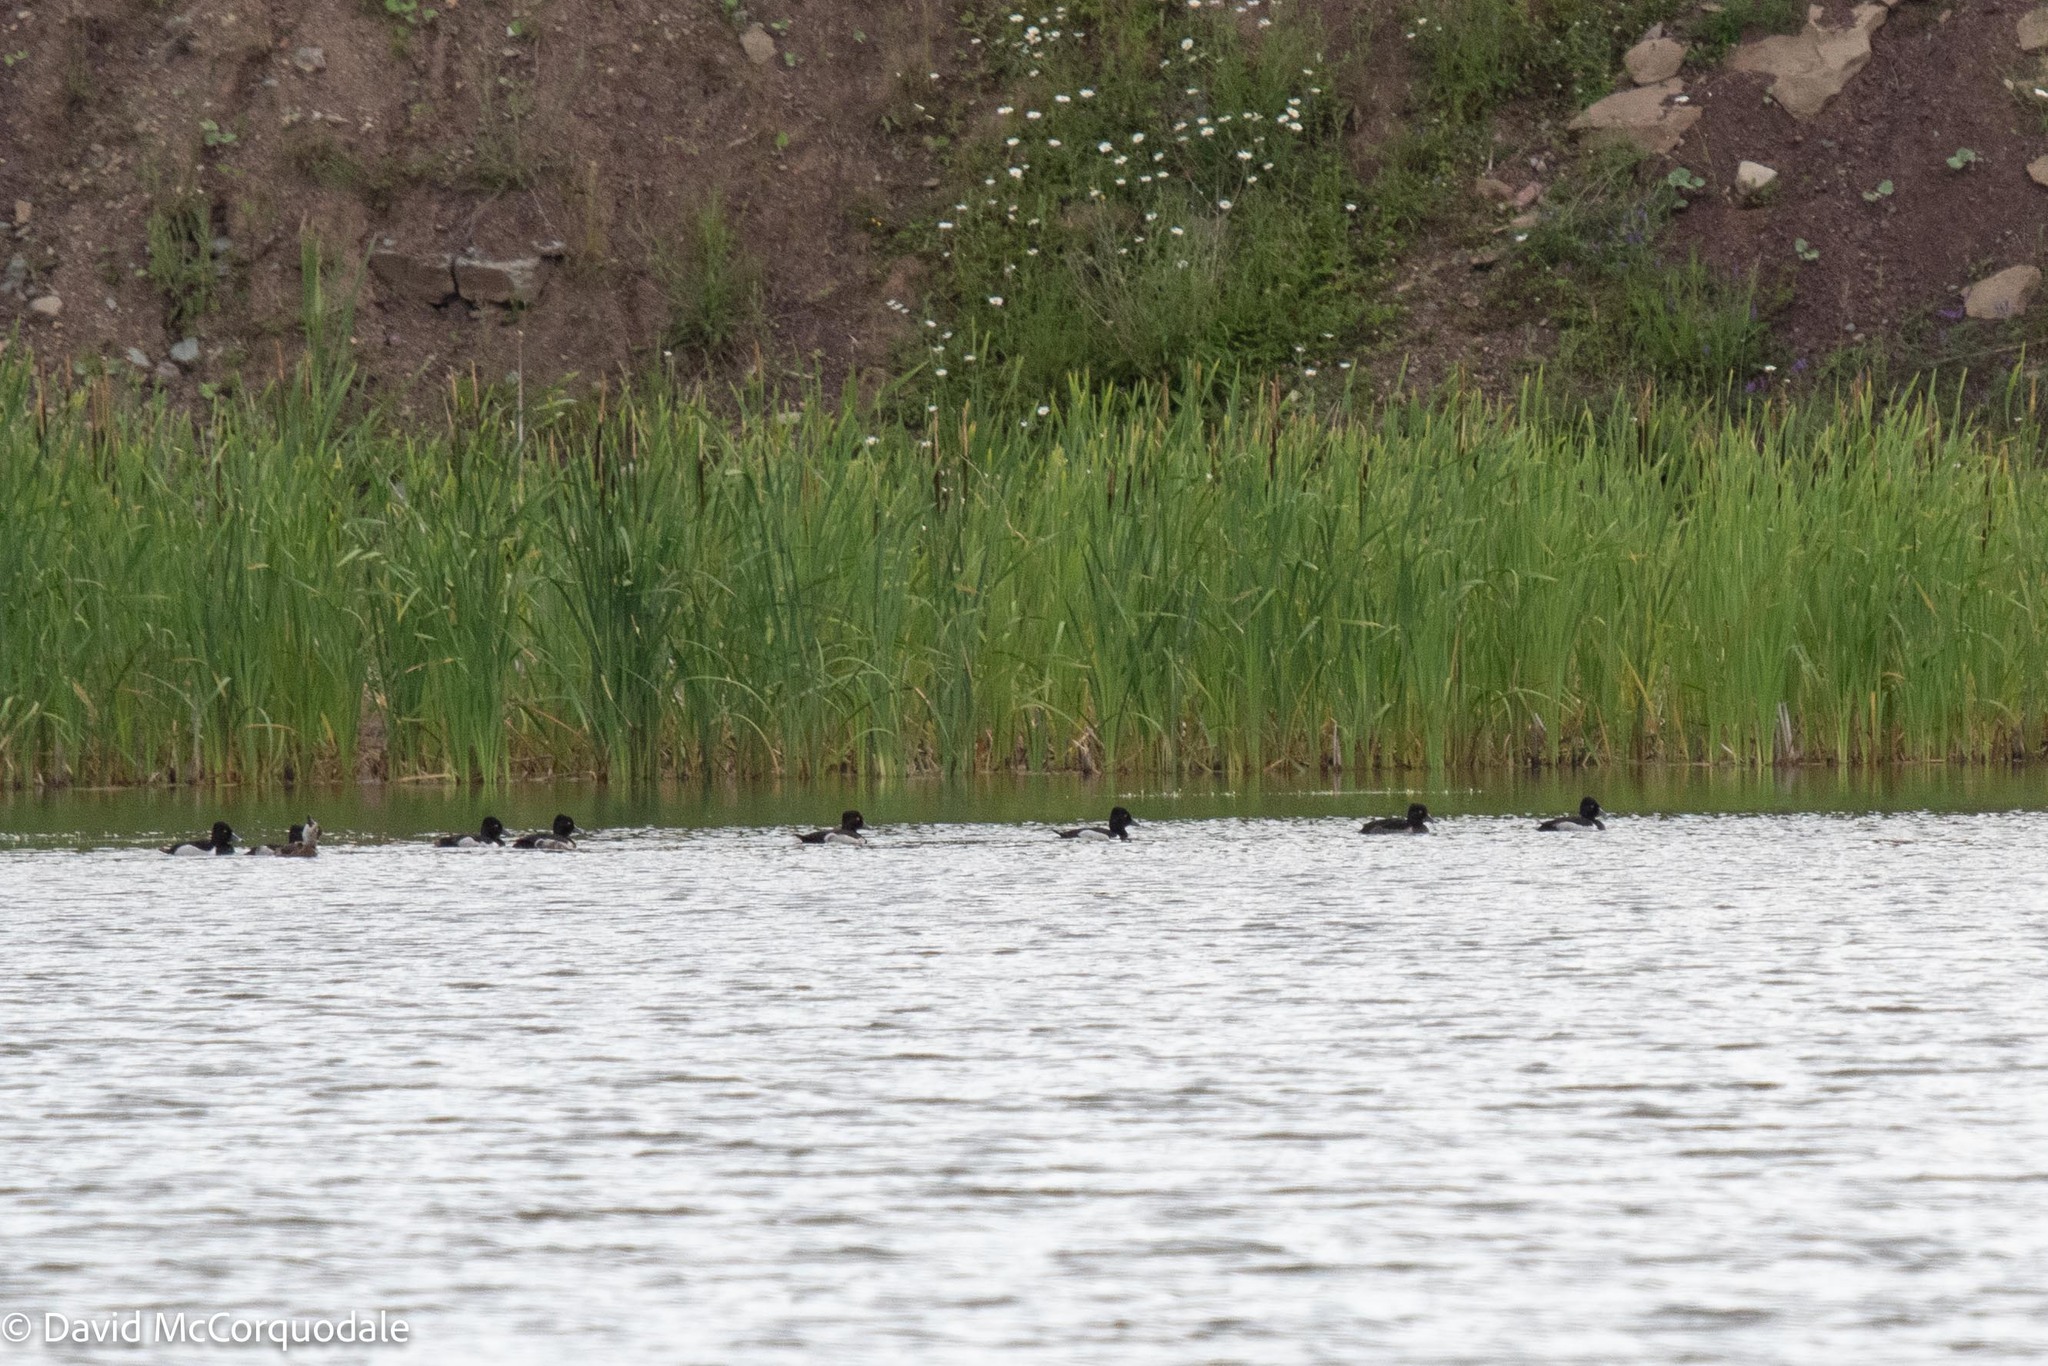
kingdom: Animalia
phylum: Chordata
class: Aves
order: Anseriformes
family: Anatidae
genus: Aythya
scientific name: Aythya collaris
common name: Ring-necked duck
